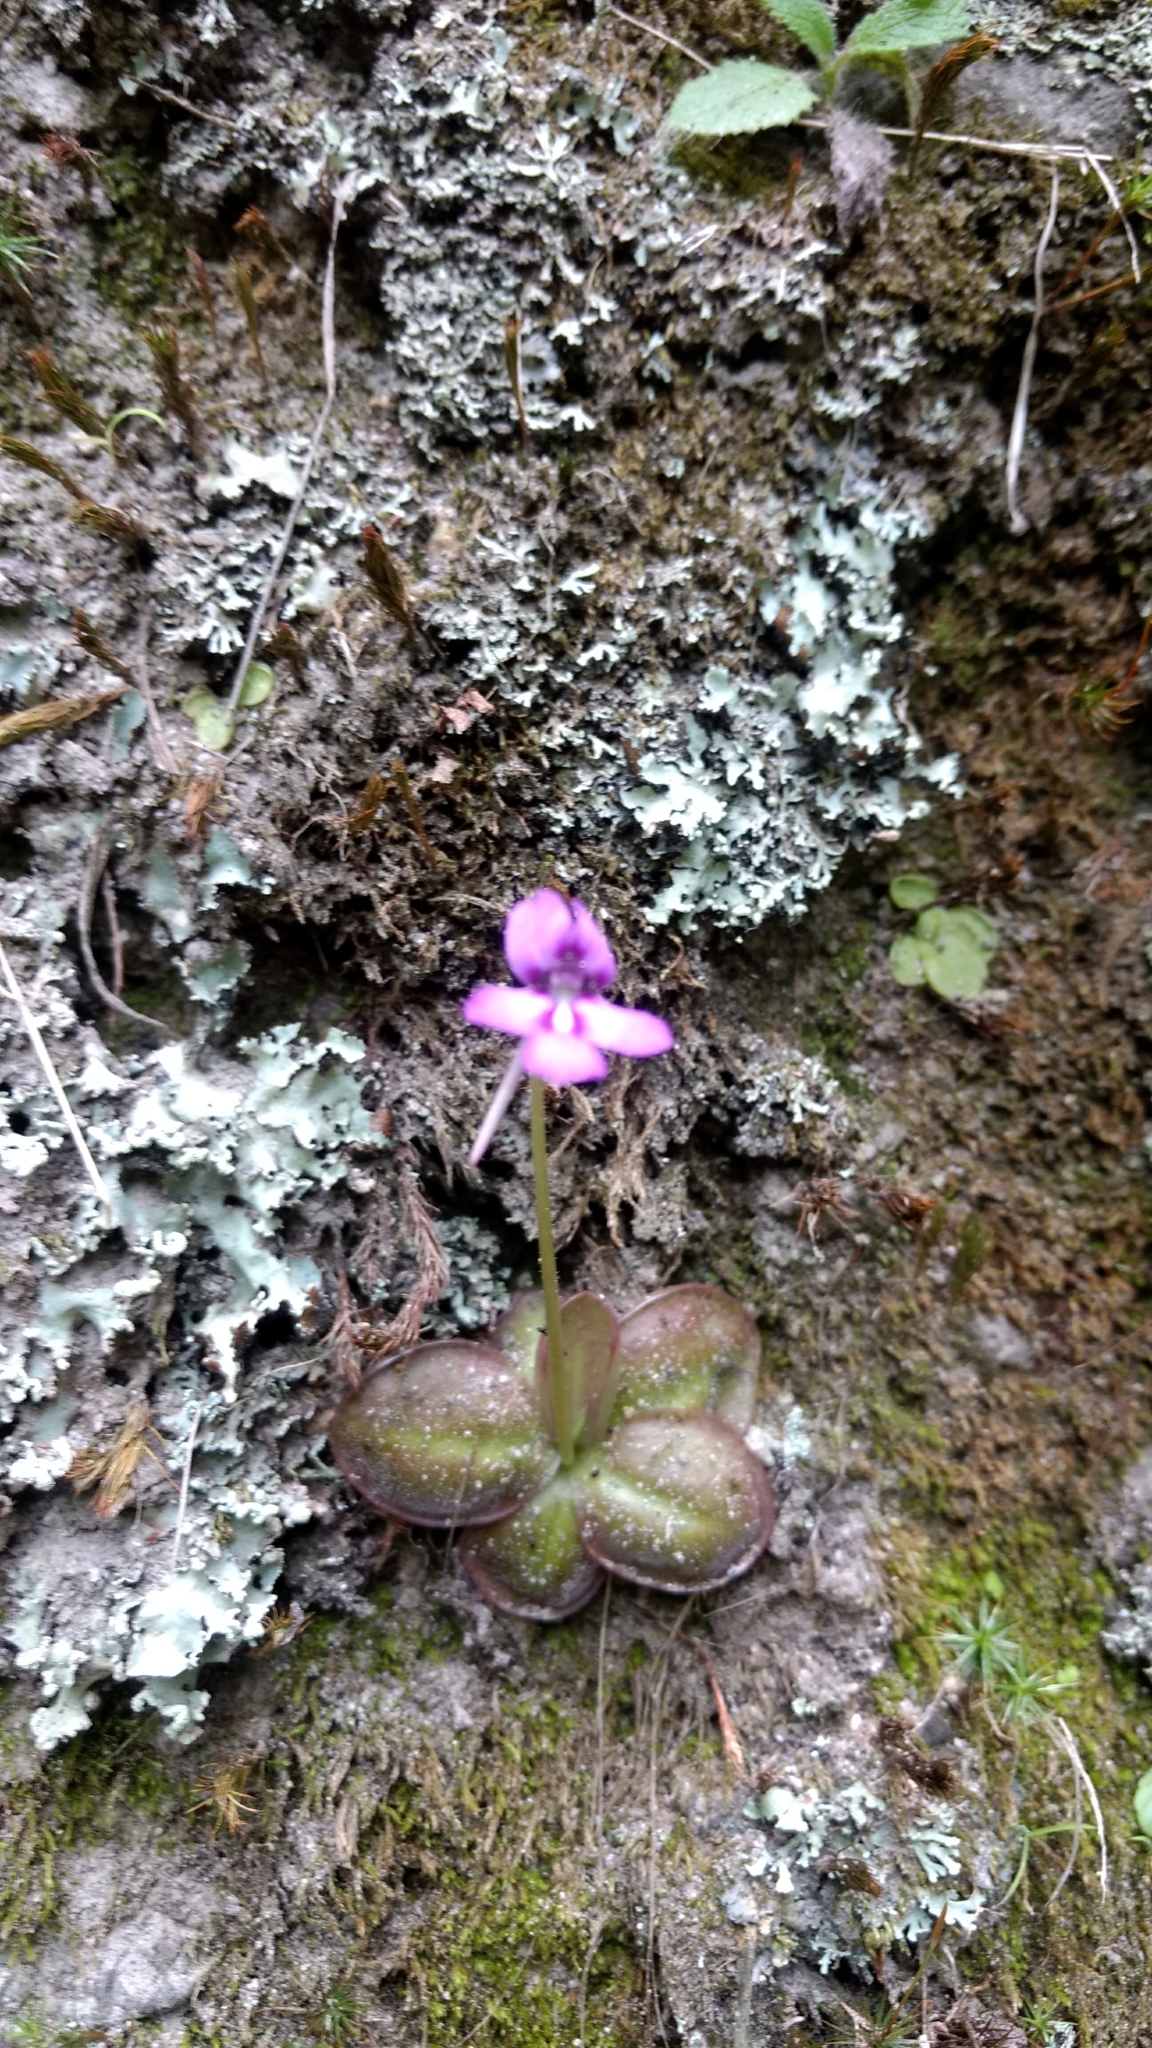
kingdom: Plantae
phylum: Tracheophyta
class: Magnoliopsida
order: Lamiales
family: Lentibulariaceae
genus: Pinguicula
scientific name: Pinguicula moranensis
